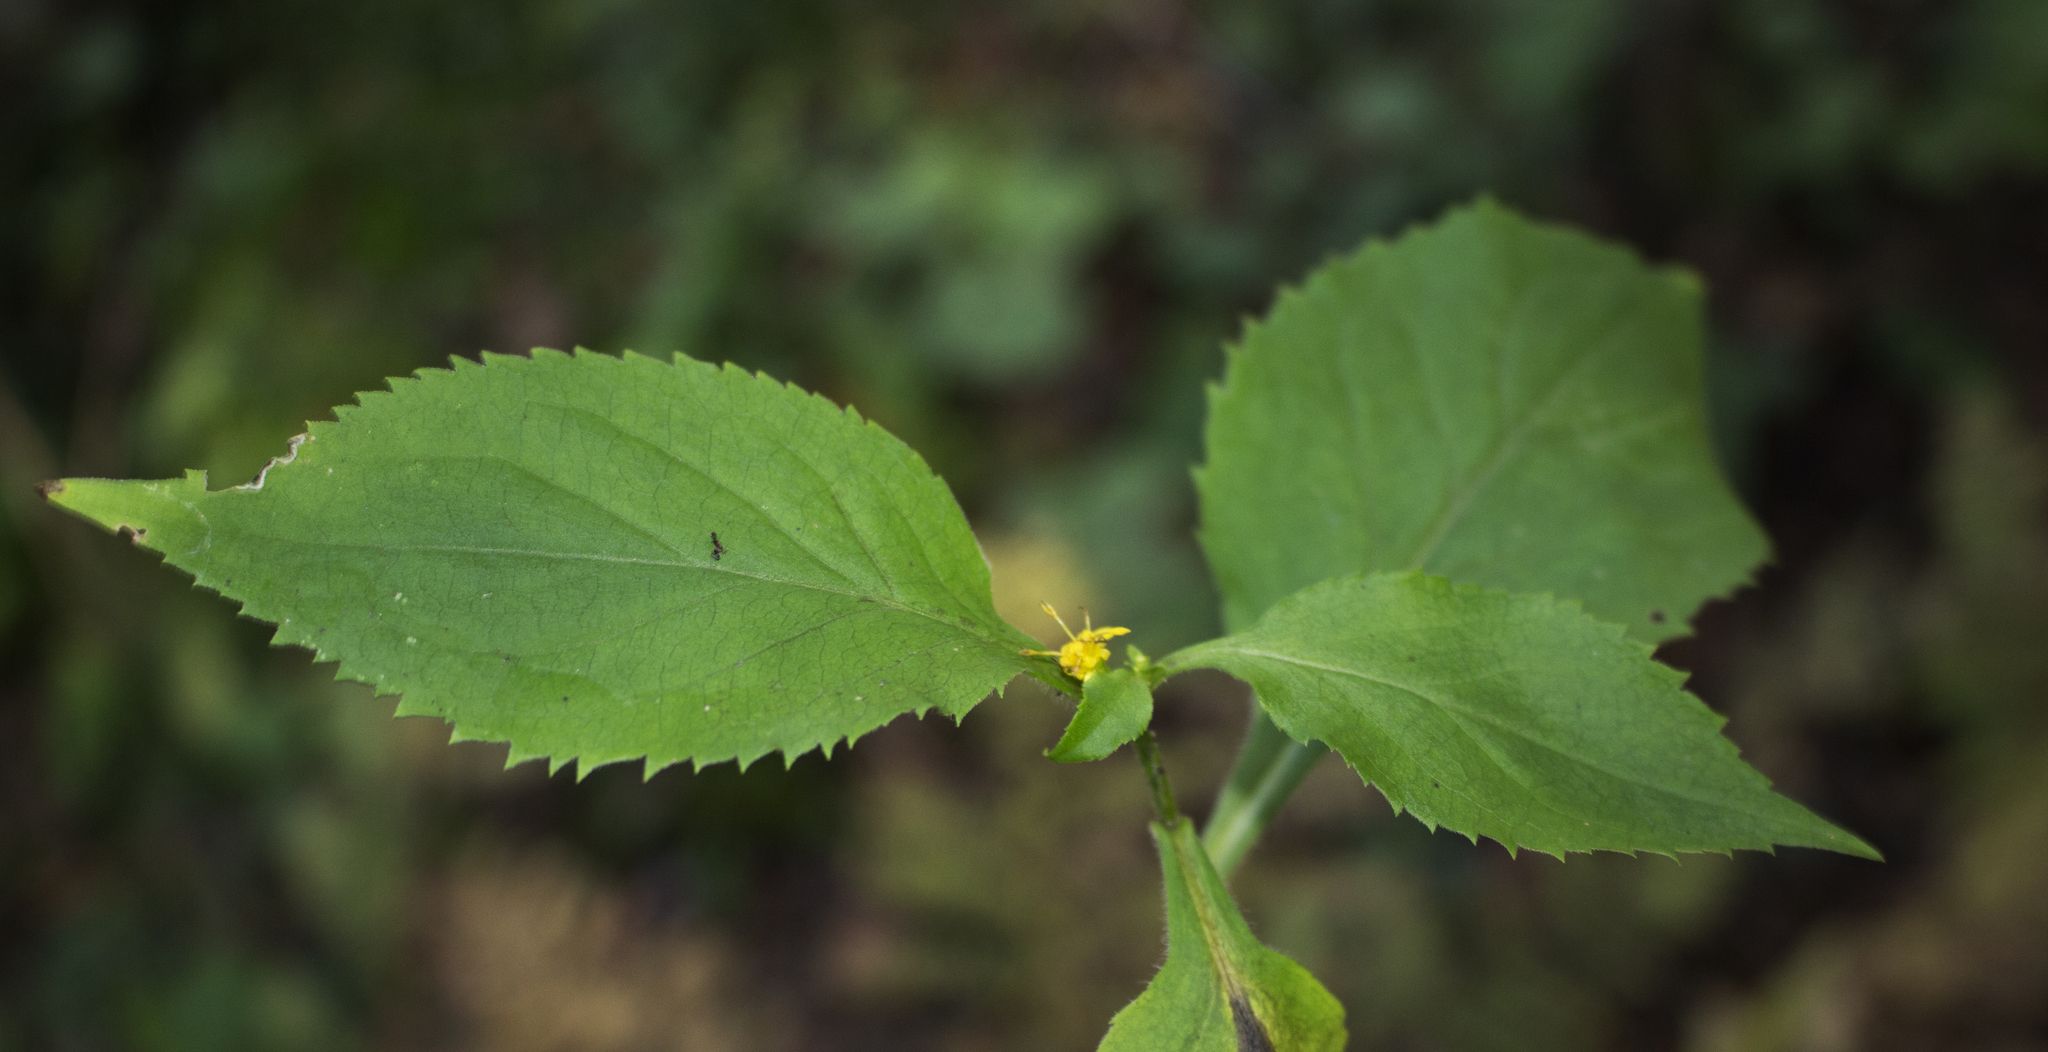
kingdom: Plantae
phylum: Tracheophyta
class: Magnoliopsida
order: Asterales
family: Asteraceae
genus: Solidago
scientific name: Solidago flexicaulis
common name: Zig-zag goldenrod
